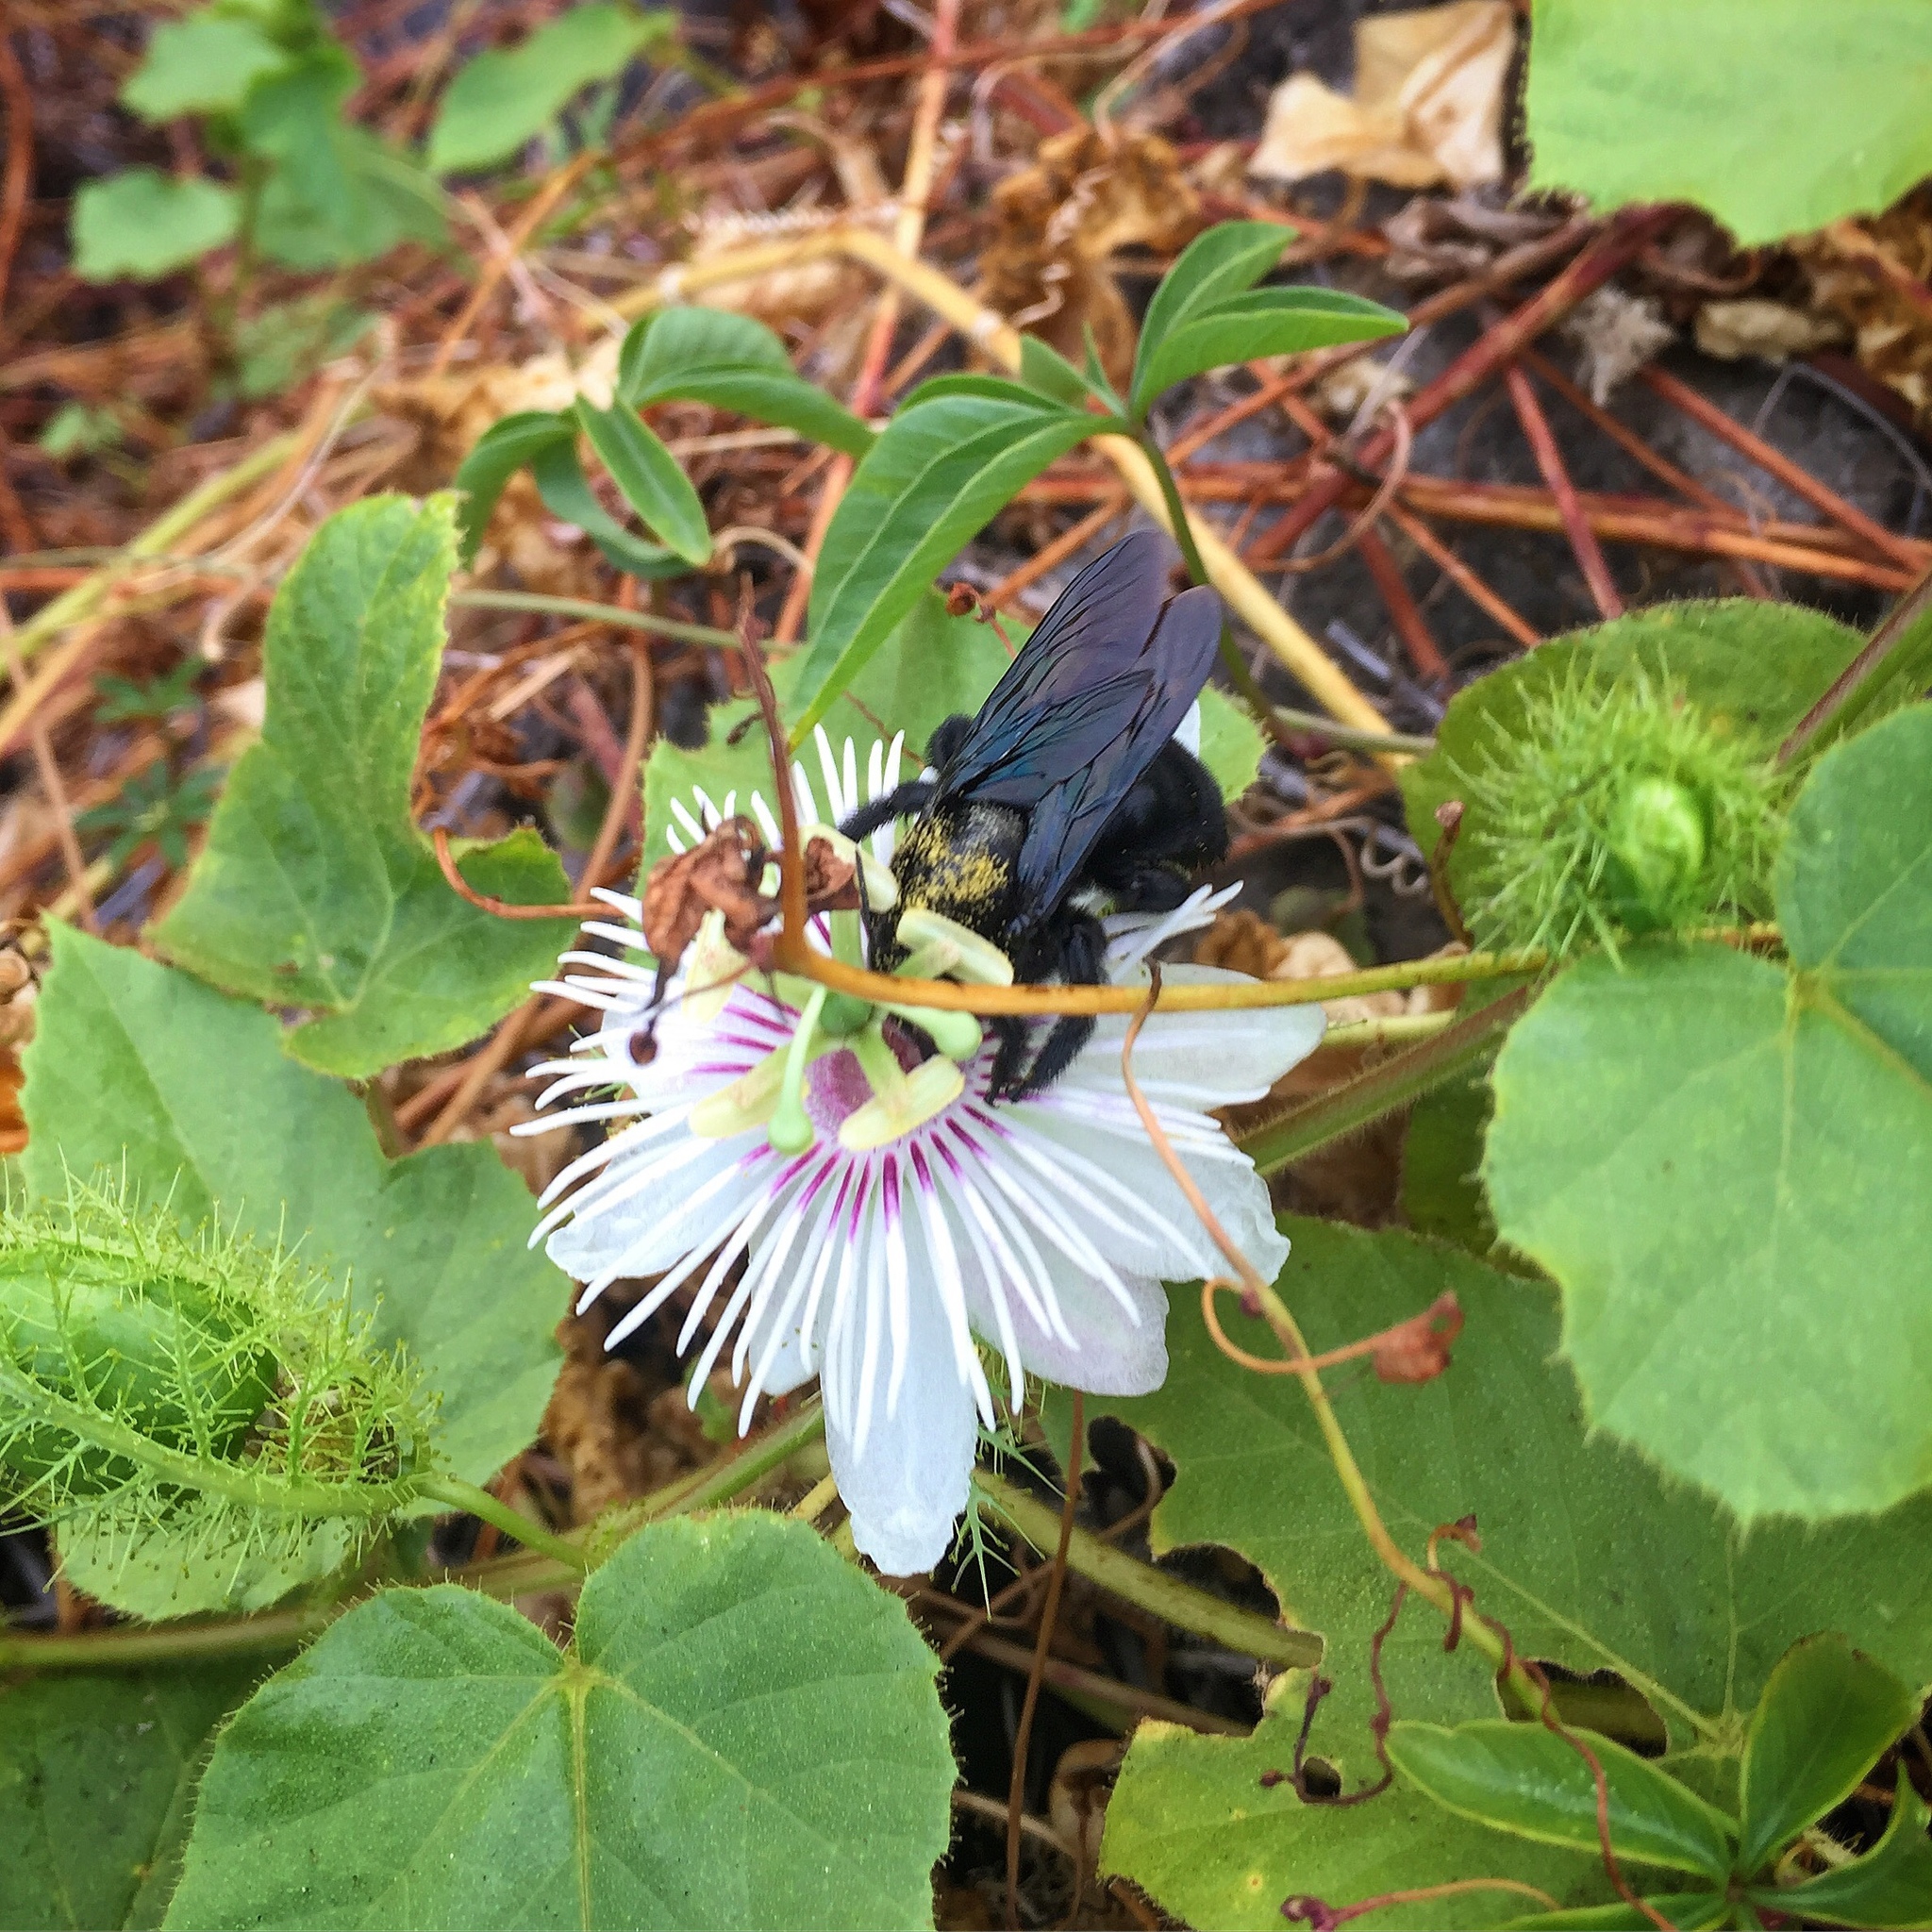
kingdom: Animalia
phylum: Arthropoda
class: Insecta
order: Hymenoptera
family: Apidae
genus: Xylocopa
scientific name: Xylocopa darwini
